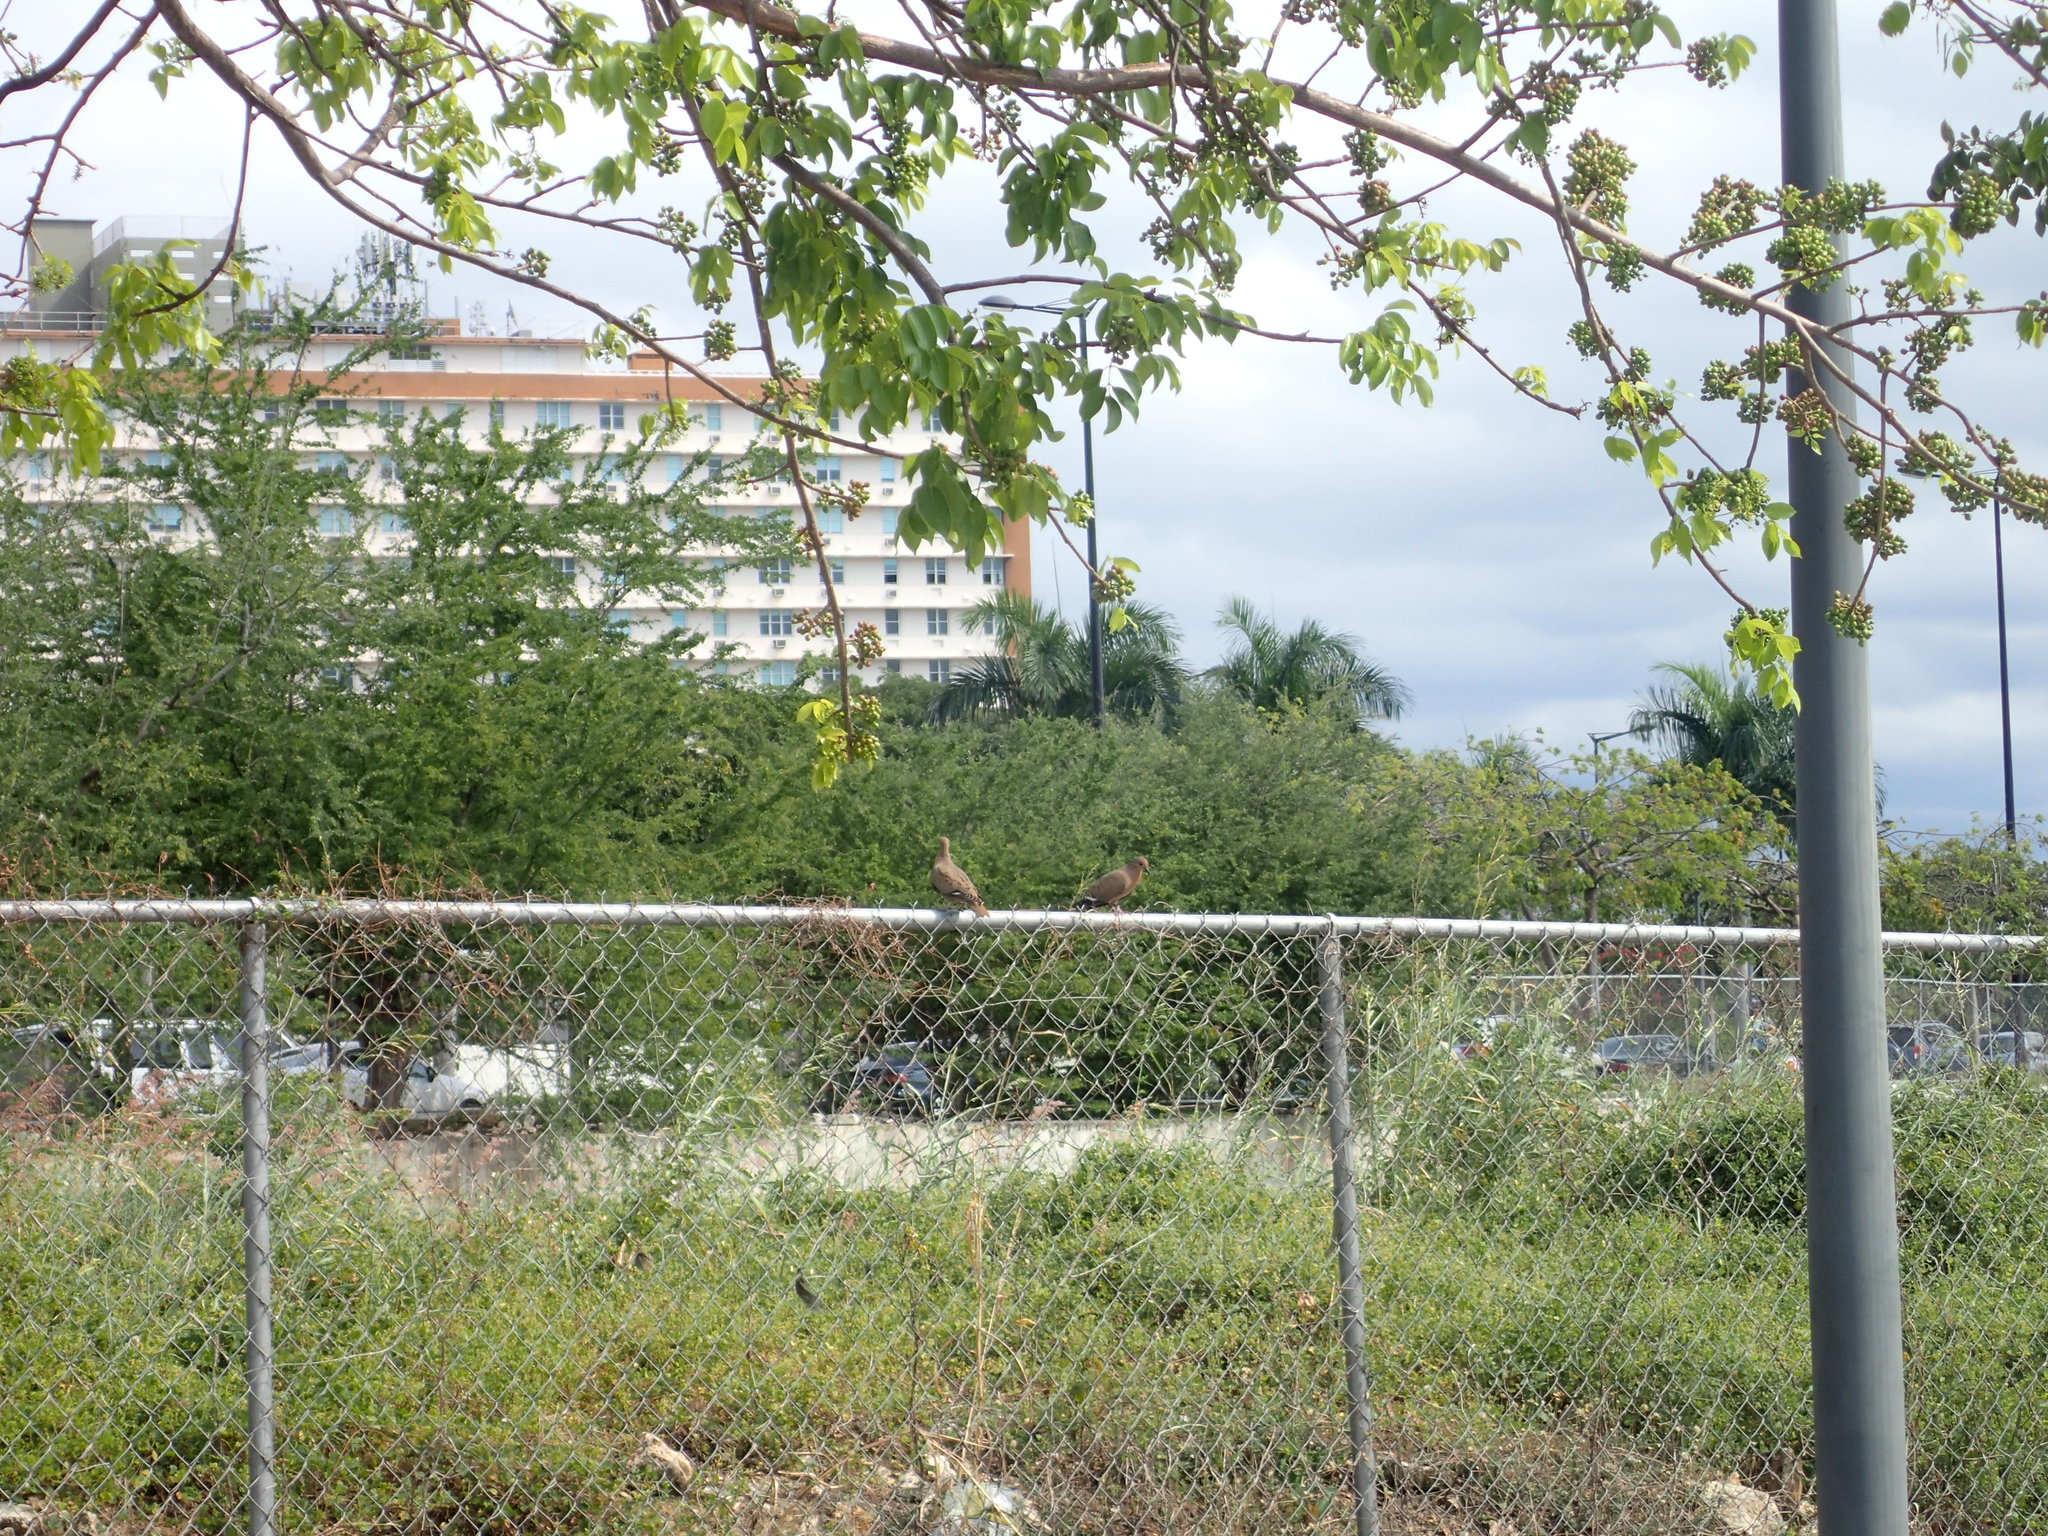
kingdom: Animalia
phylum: Chordata
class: Aves
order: Columbiformes
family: Columbidae
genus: Zenaida
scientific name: Zenaida aurita
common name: Zenaida dove
